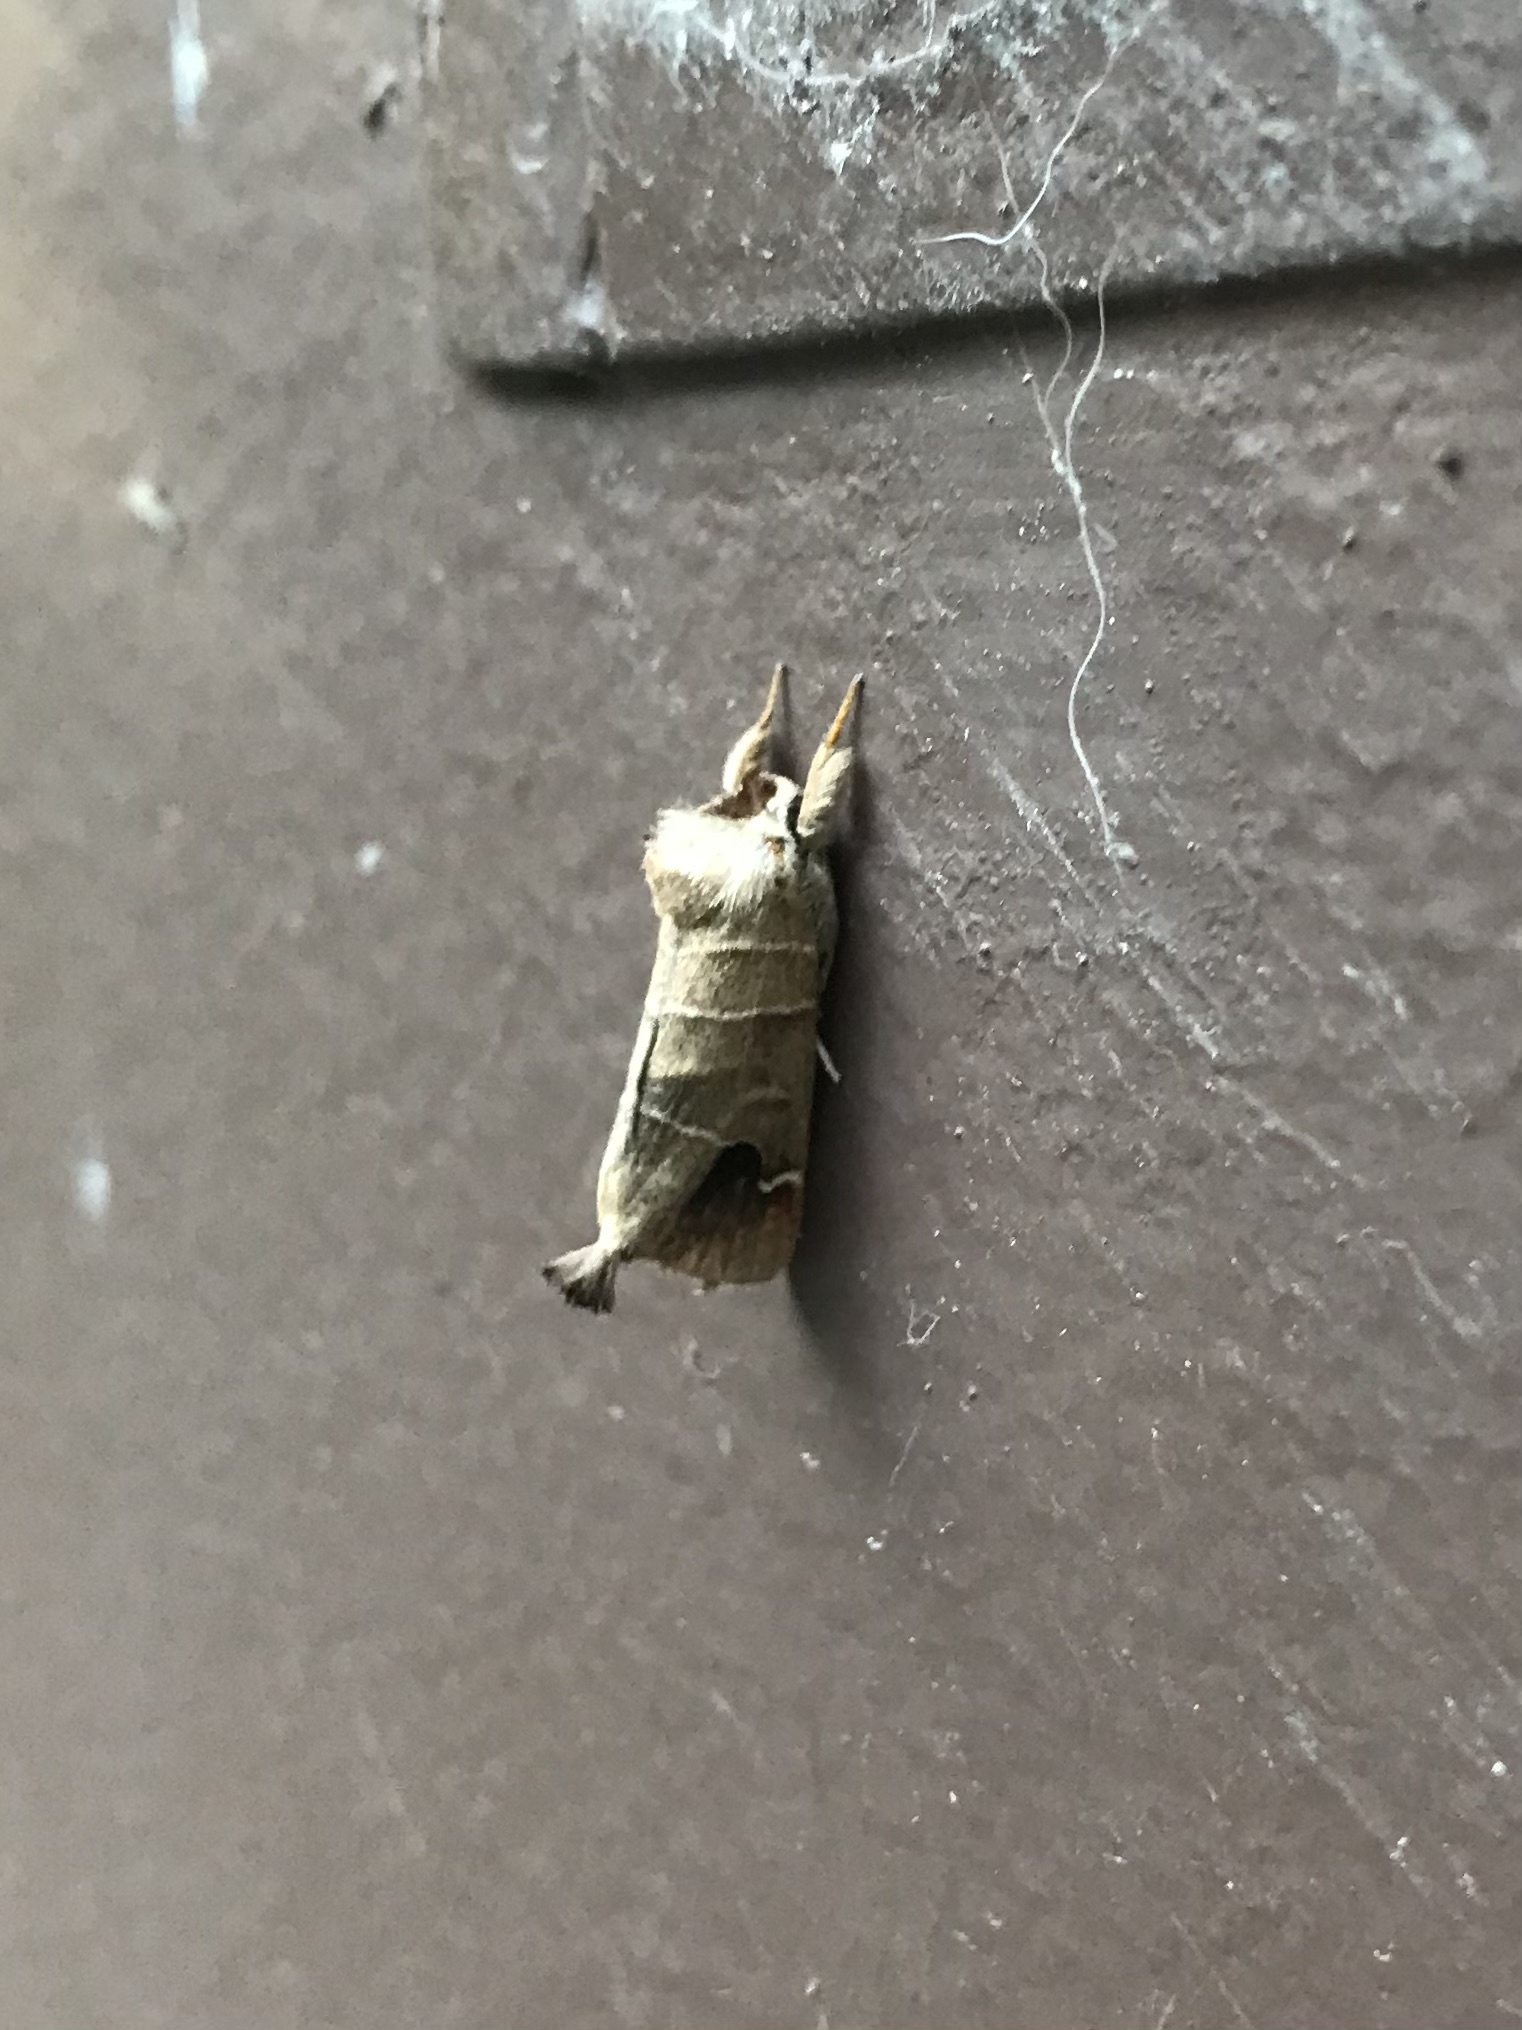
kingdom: Animalia
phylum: Arthropoda
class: Insecta
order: Lepidoptera
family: Notodontidae
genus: Clostera
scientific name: Clostera albosigma
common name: Sigmoid prominent
